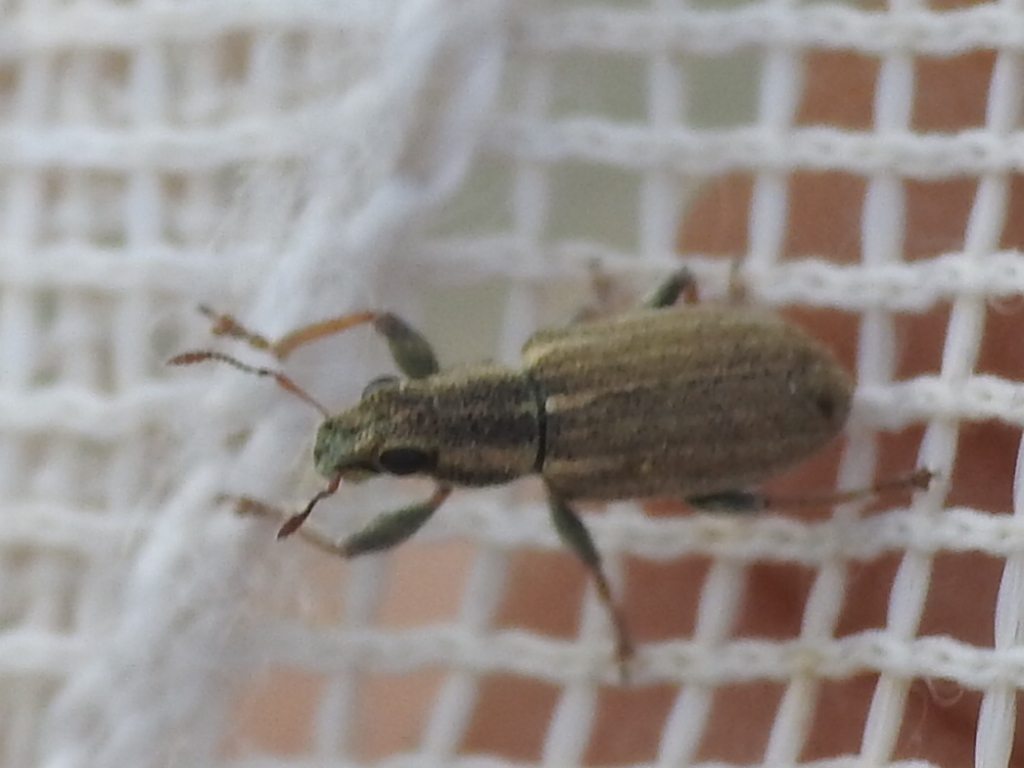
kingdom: Animalia
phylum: Arthropoda
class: Insecta
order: Coleoptera
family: Curculionidae
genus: Sitona
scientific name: Sitona lineatus
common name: Weevil
